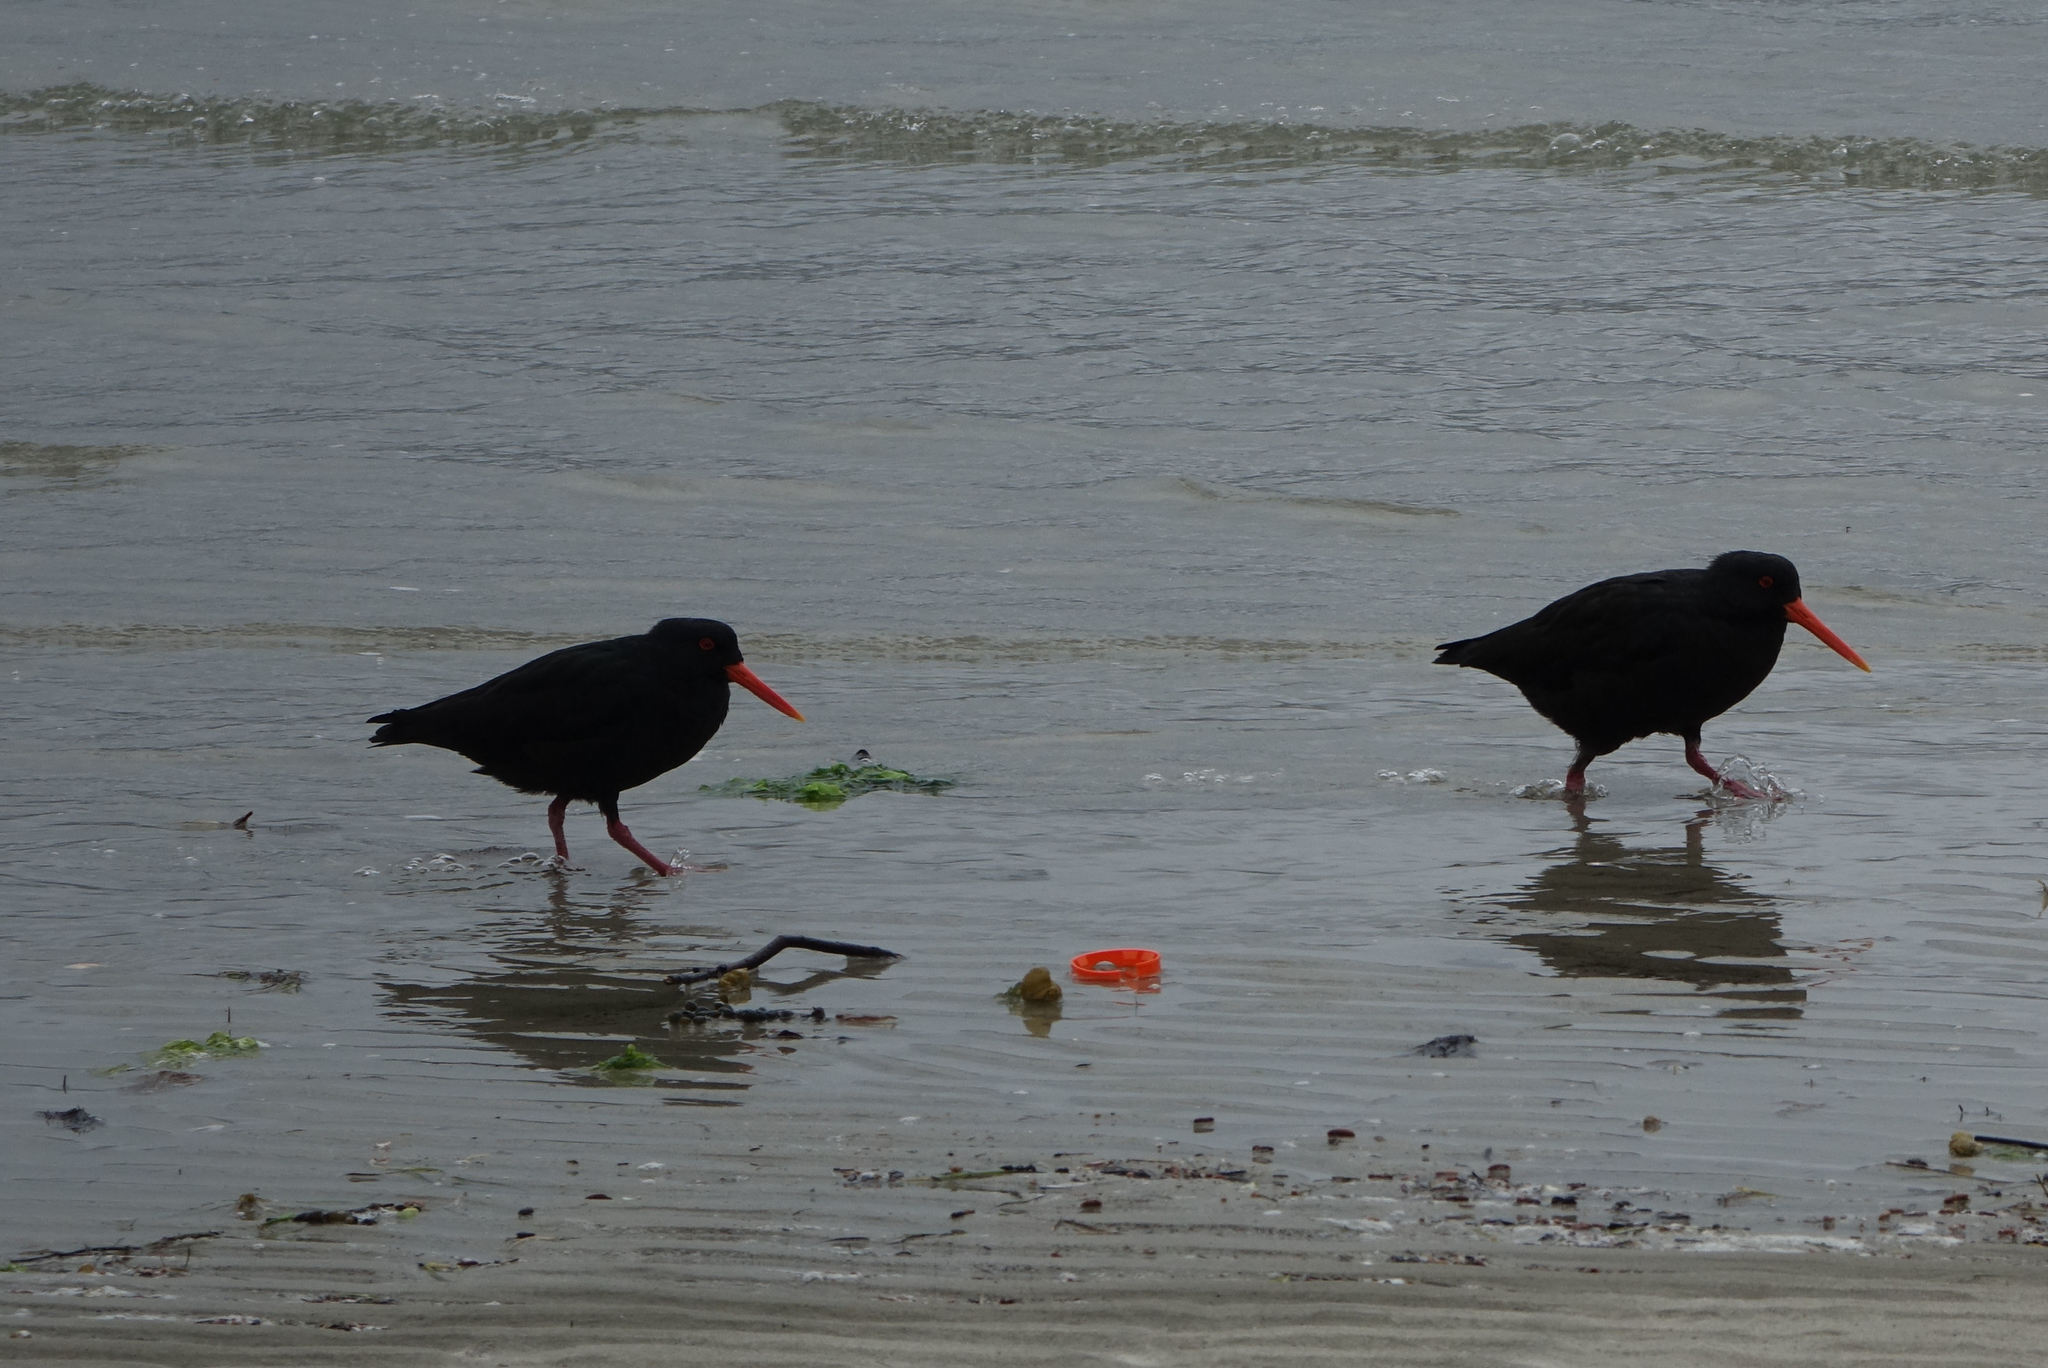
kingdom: Animalia
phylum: Chordata
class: Aves
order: Charadriiformes
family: Haematopodidae
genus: Haematopus
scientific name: Haematopus unicolor
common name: Variable oystercatcher
